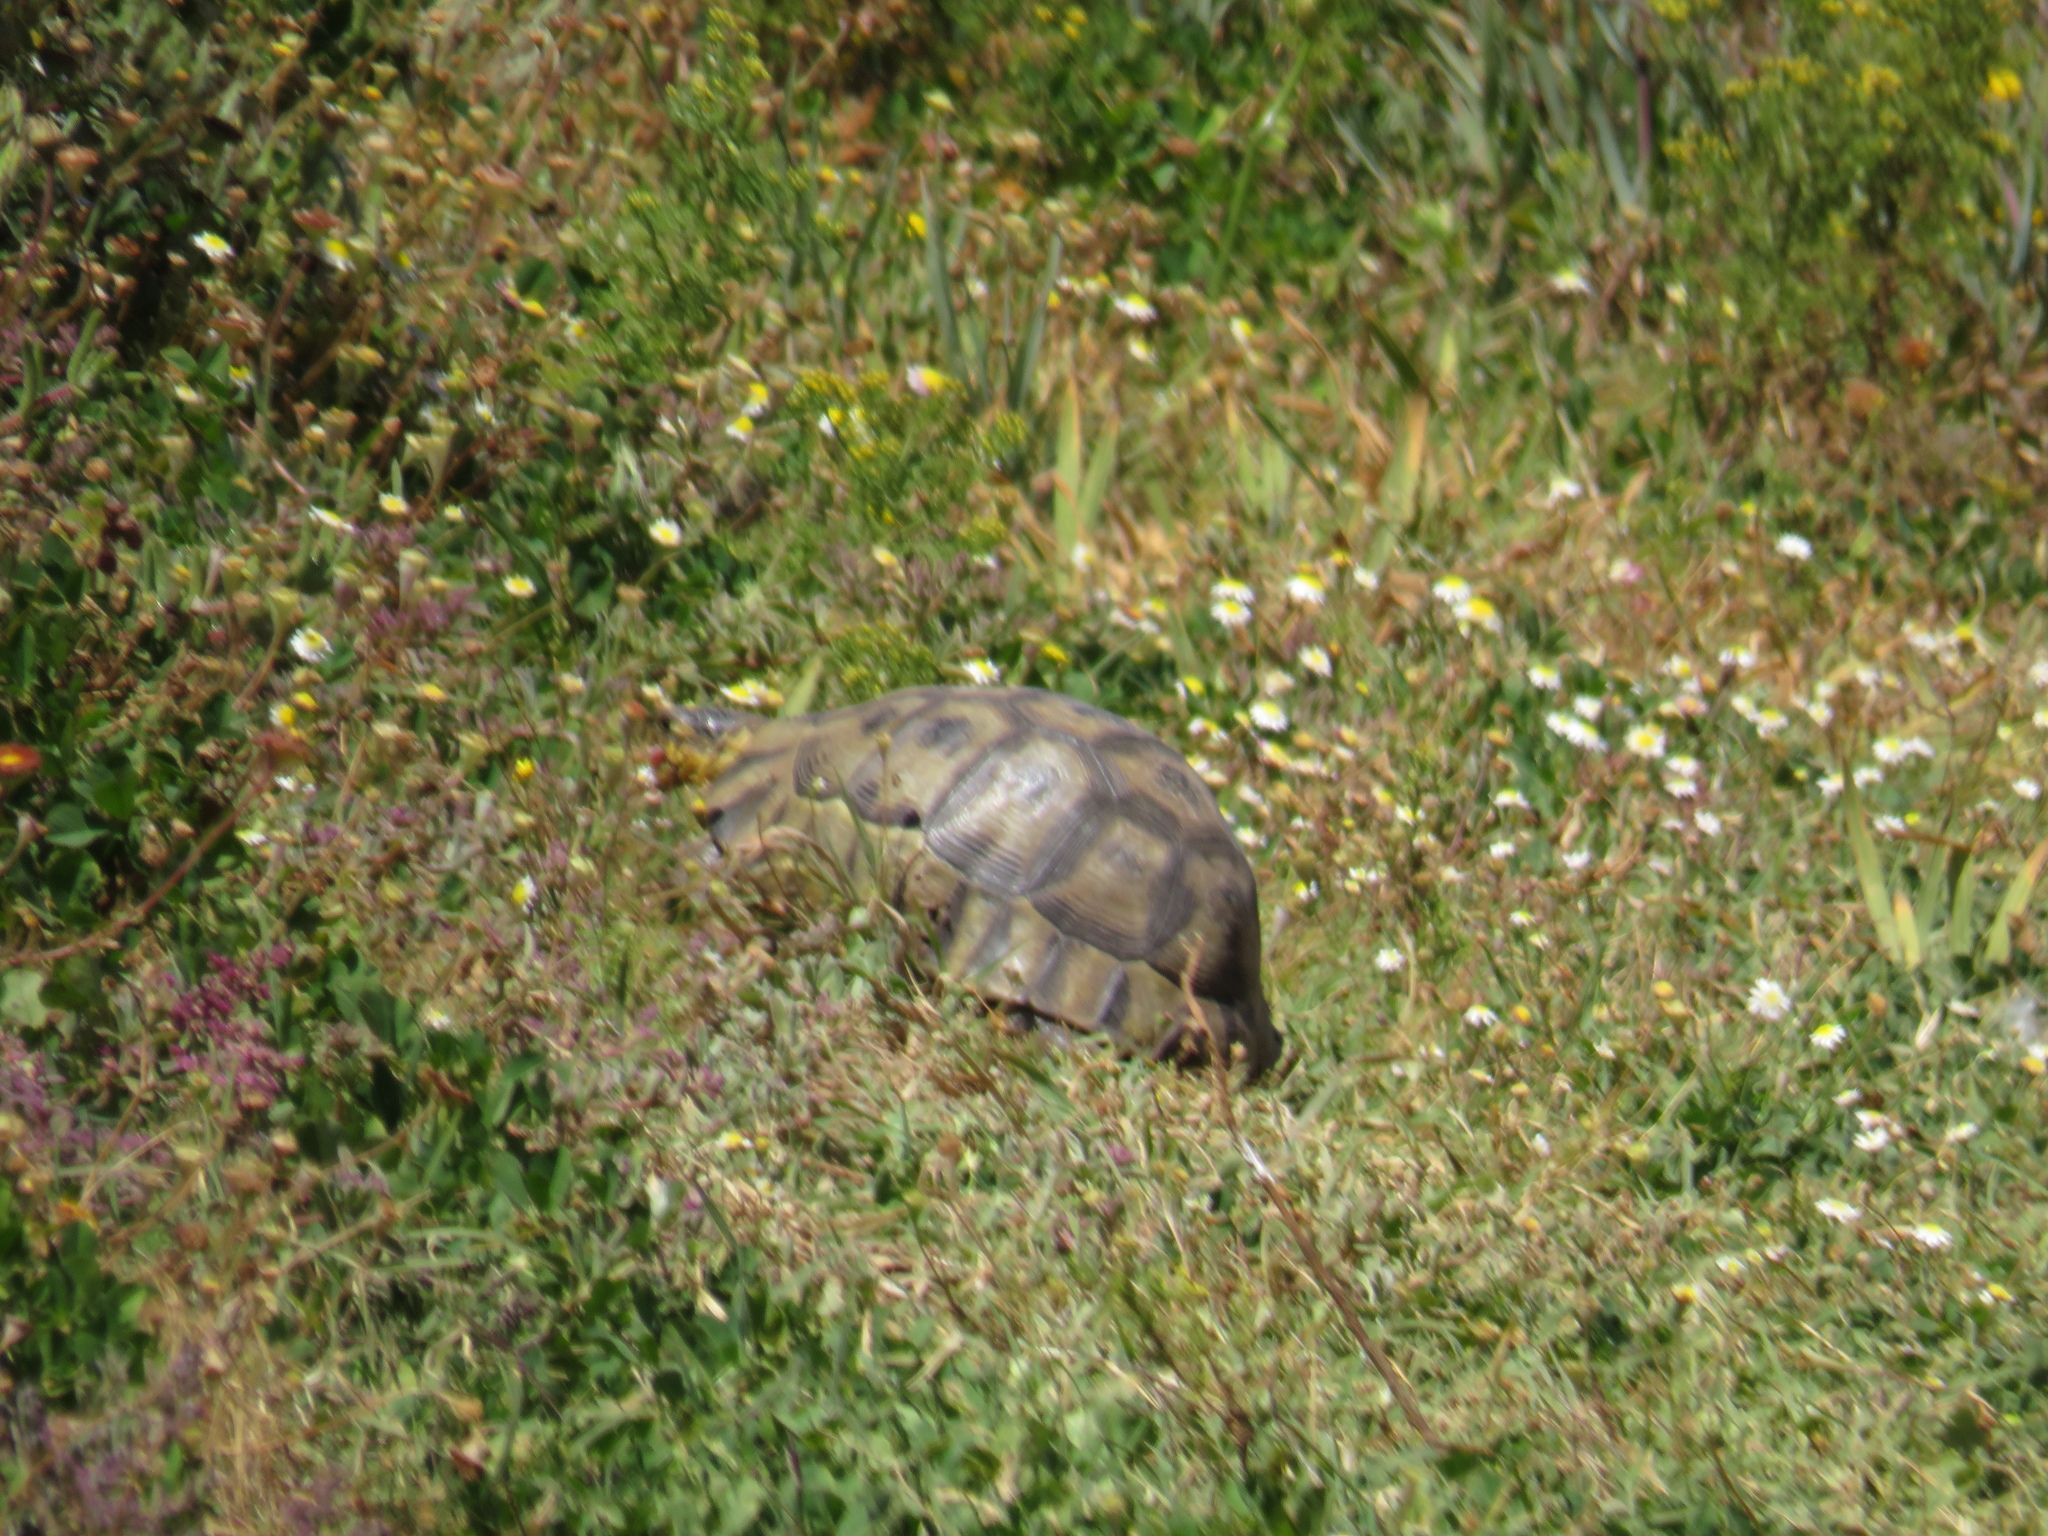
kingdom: Animalia
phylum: Chordata
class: Testudines
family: Testudinidae
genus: Chersina
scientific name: Chersina angulata
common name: South african bowsprit tortoise
